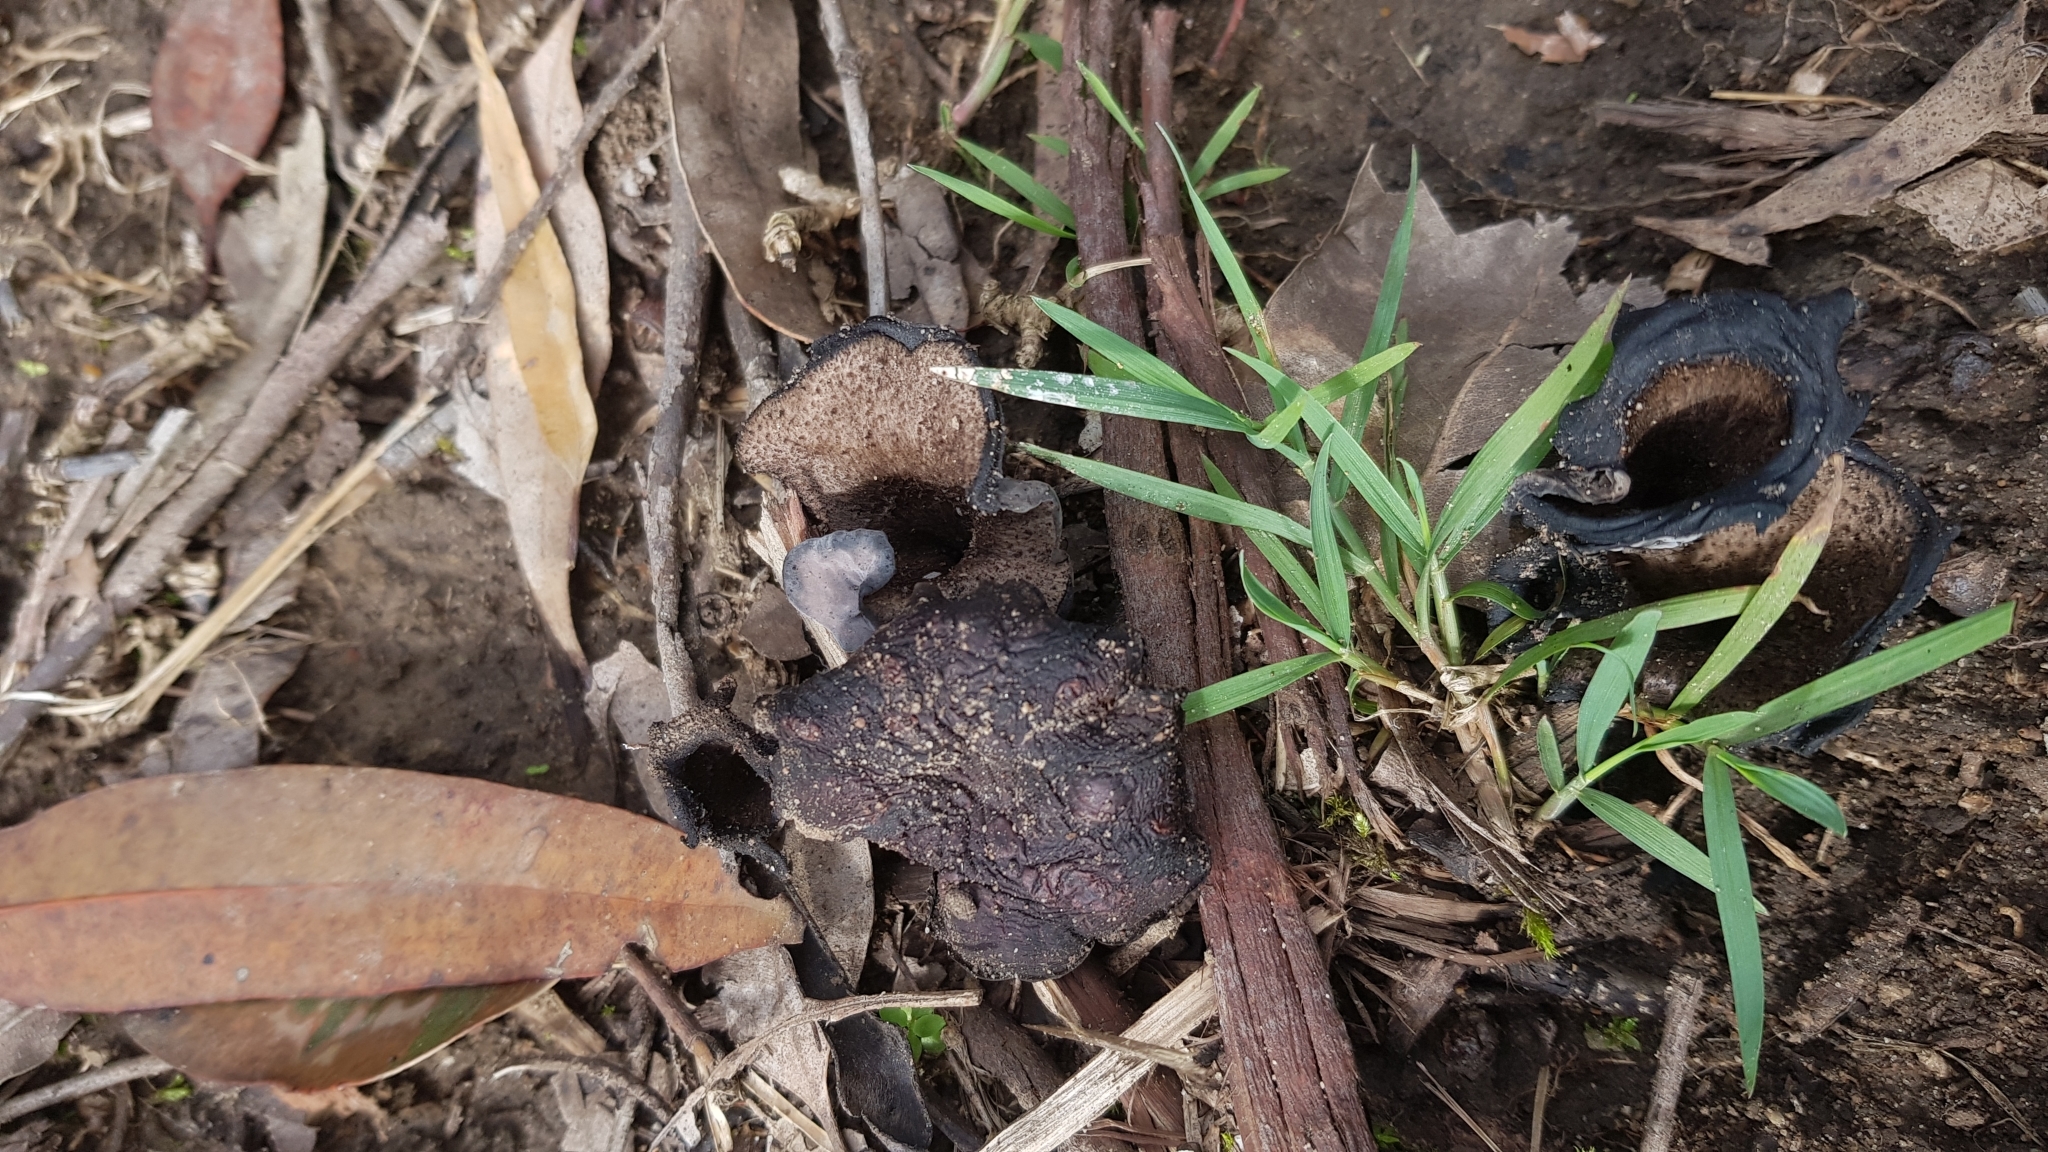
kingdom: Fungi
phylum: Basidiomycota
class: Agaricomycetes
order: Cantharellales
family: Hydnaceae
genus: Craterellus
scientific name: Craterellus cornucopioides
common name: Horn of plenty
